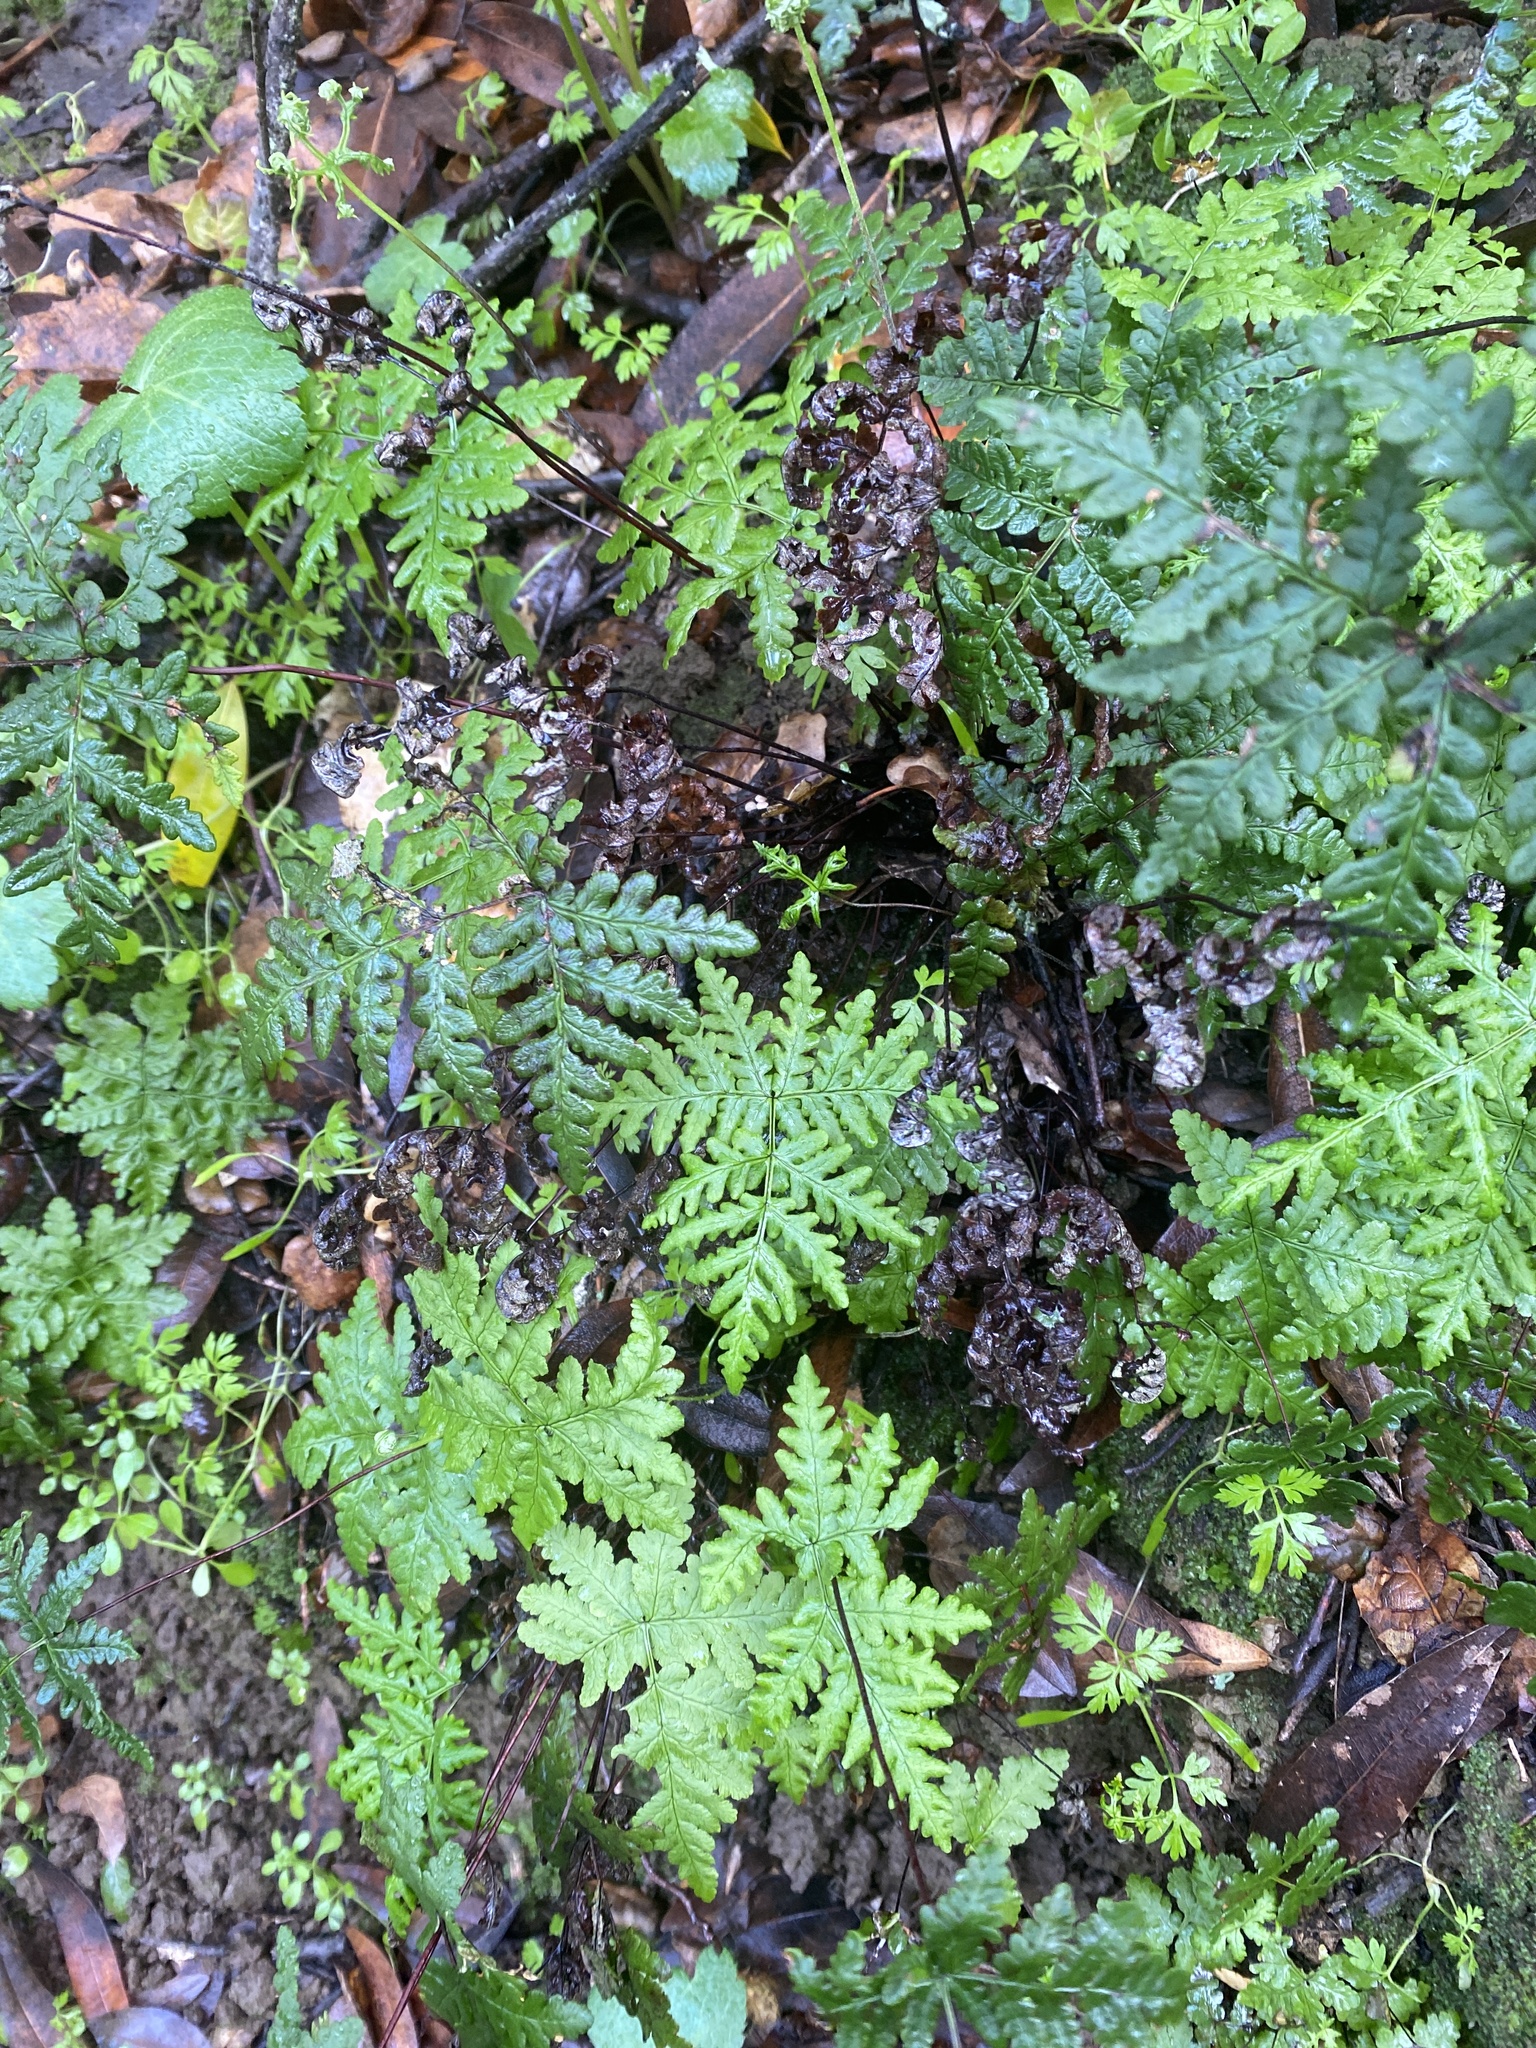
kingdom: Plantae
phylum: Tracheophyta
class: Polypodiopsida
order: Polypodiales
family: Pteridaceae
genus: Pentagramma
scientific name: Pentagramma triangularis
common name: Gold fern
